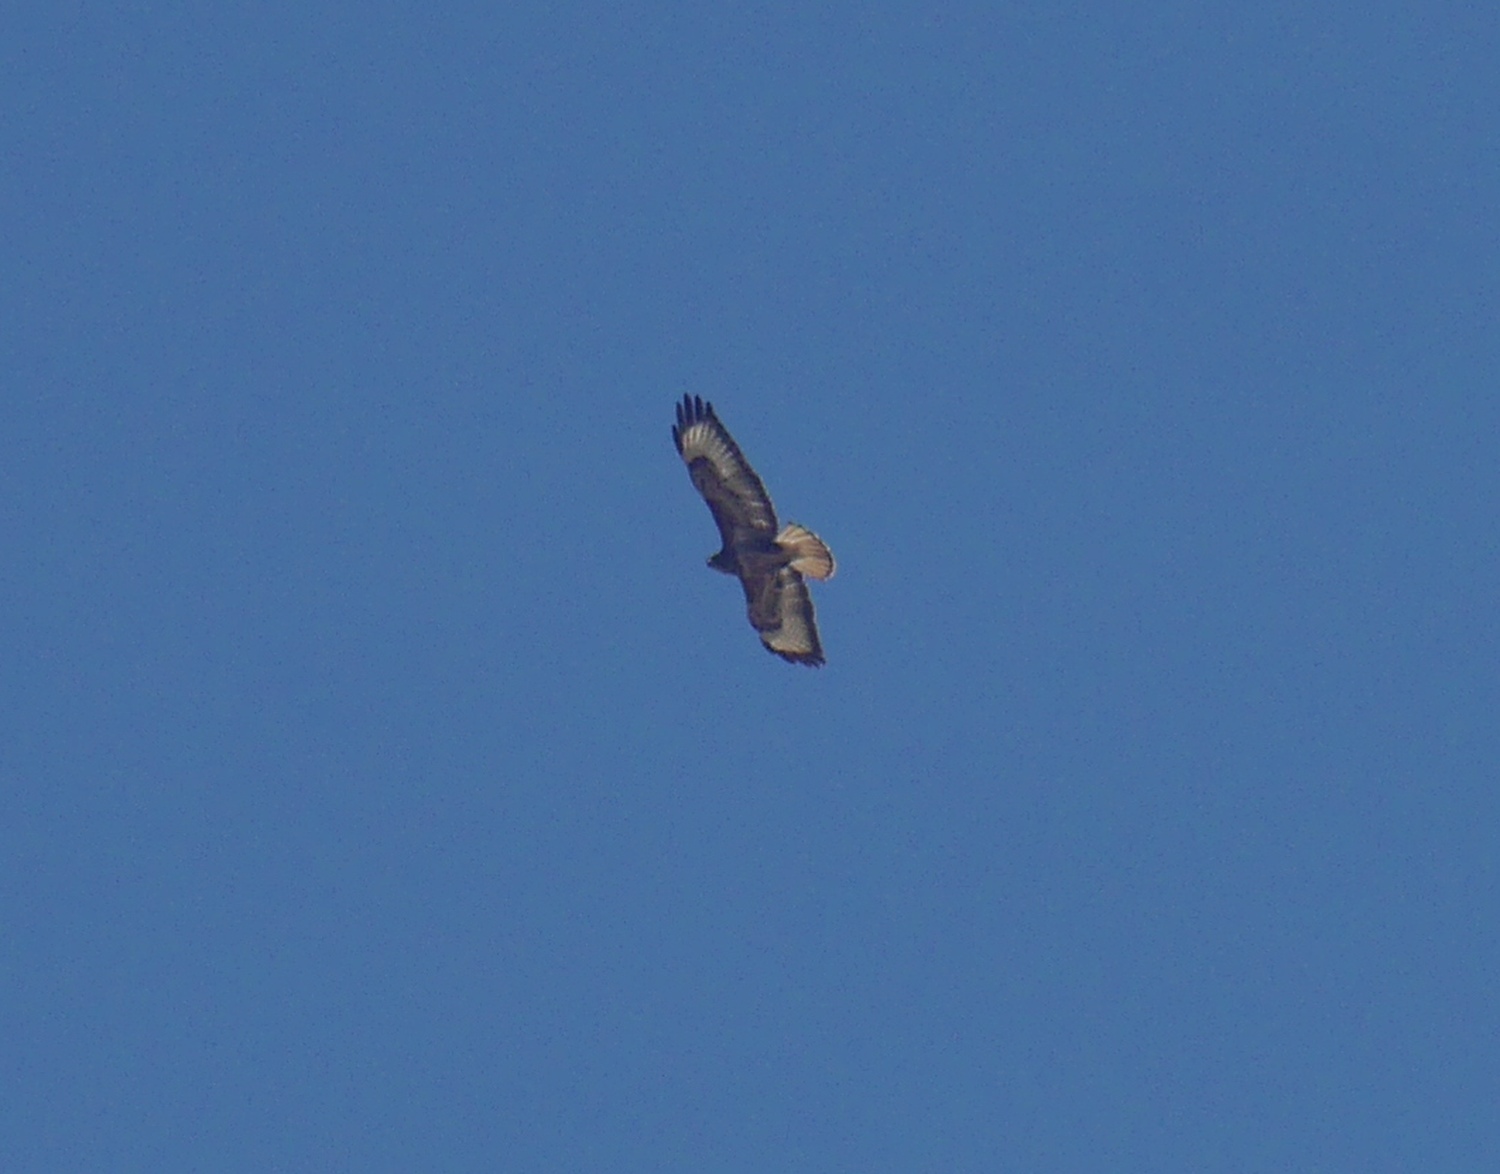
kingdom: Animalia
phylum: Chordata
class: Aves
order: Accipitriformes
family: Accipitridae
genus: Buteo
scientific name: Buteo buteo
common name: Common buzzard
